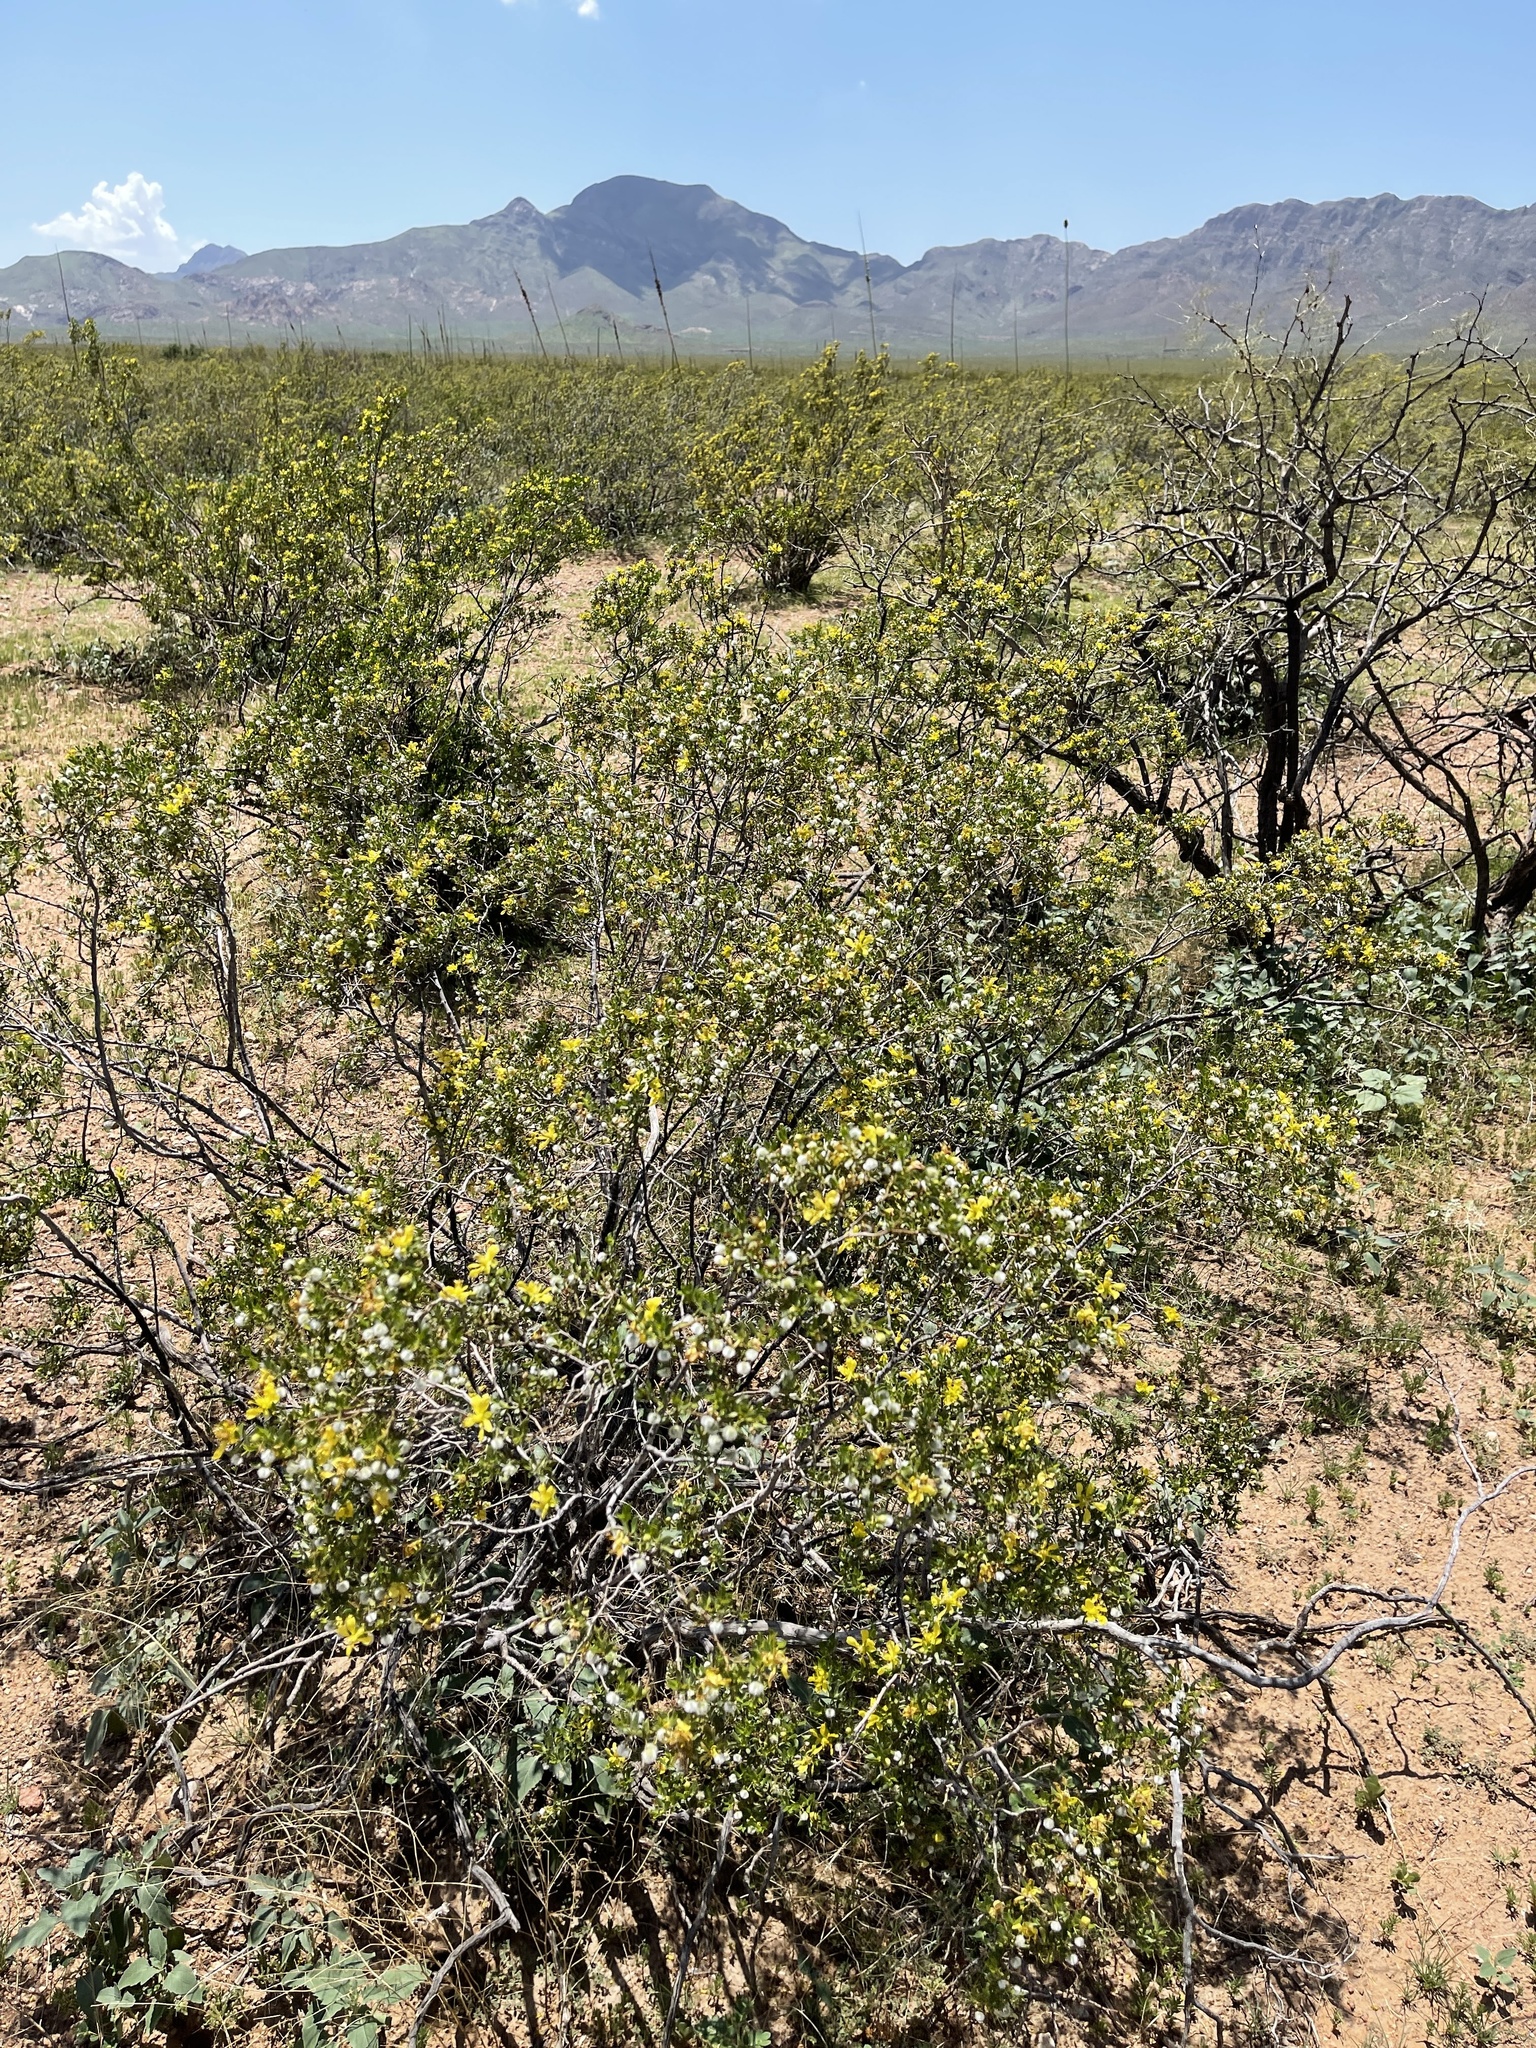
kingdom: Plantae
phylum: Tracheophyta
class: Magnoliopsida
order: Zygophyllales
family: Zygophyllaceae
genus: Larrea
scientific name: Larrea tridentata
